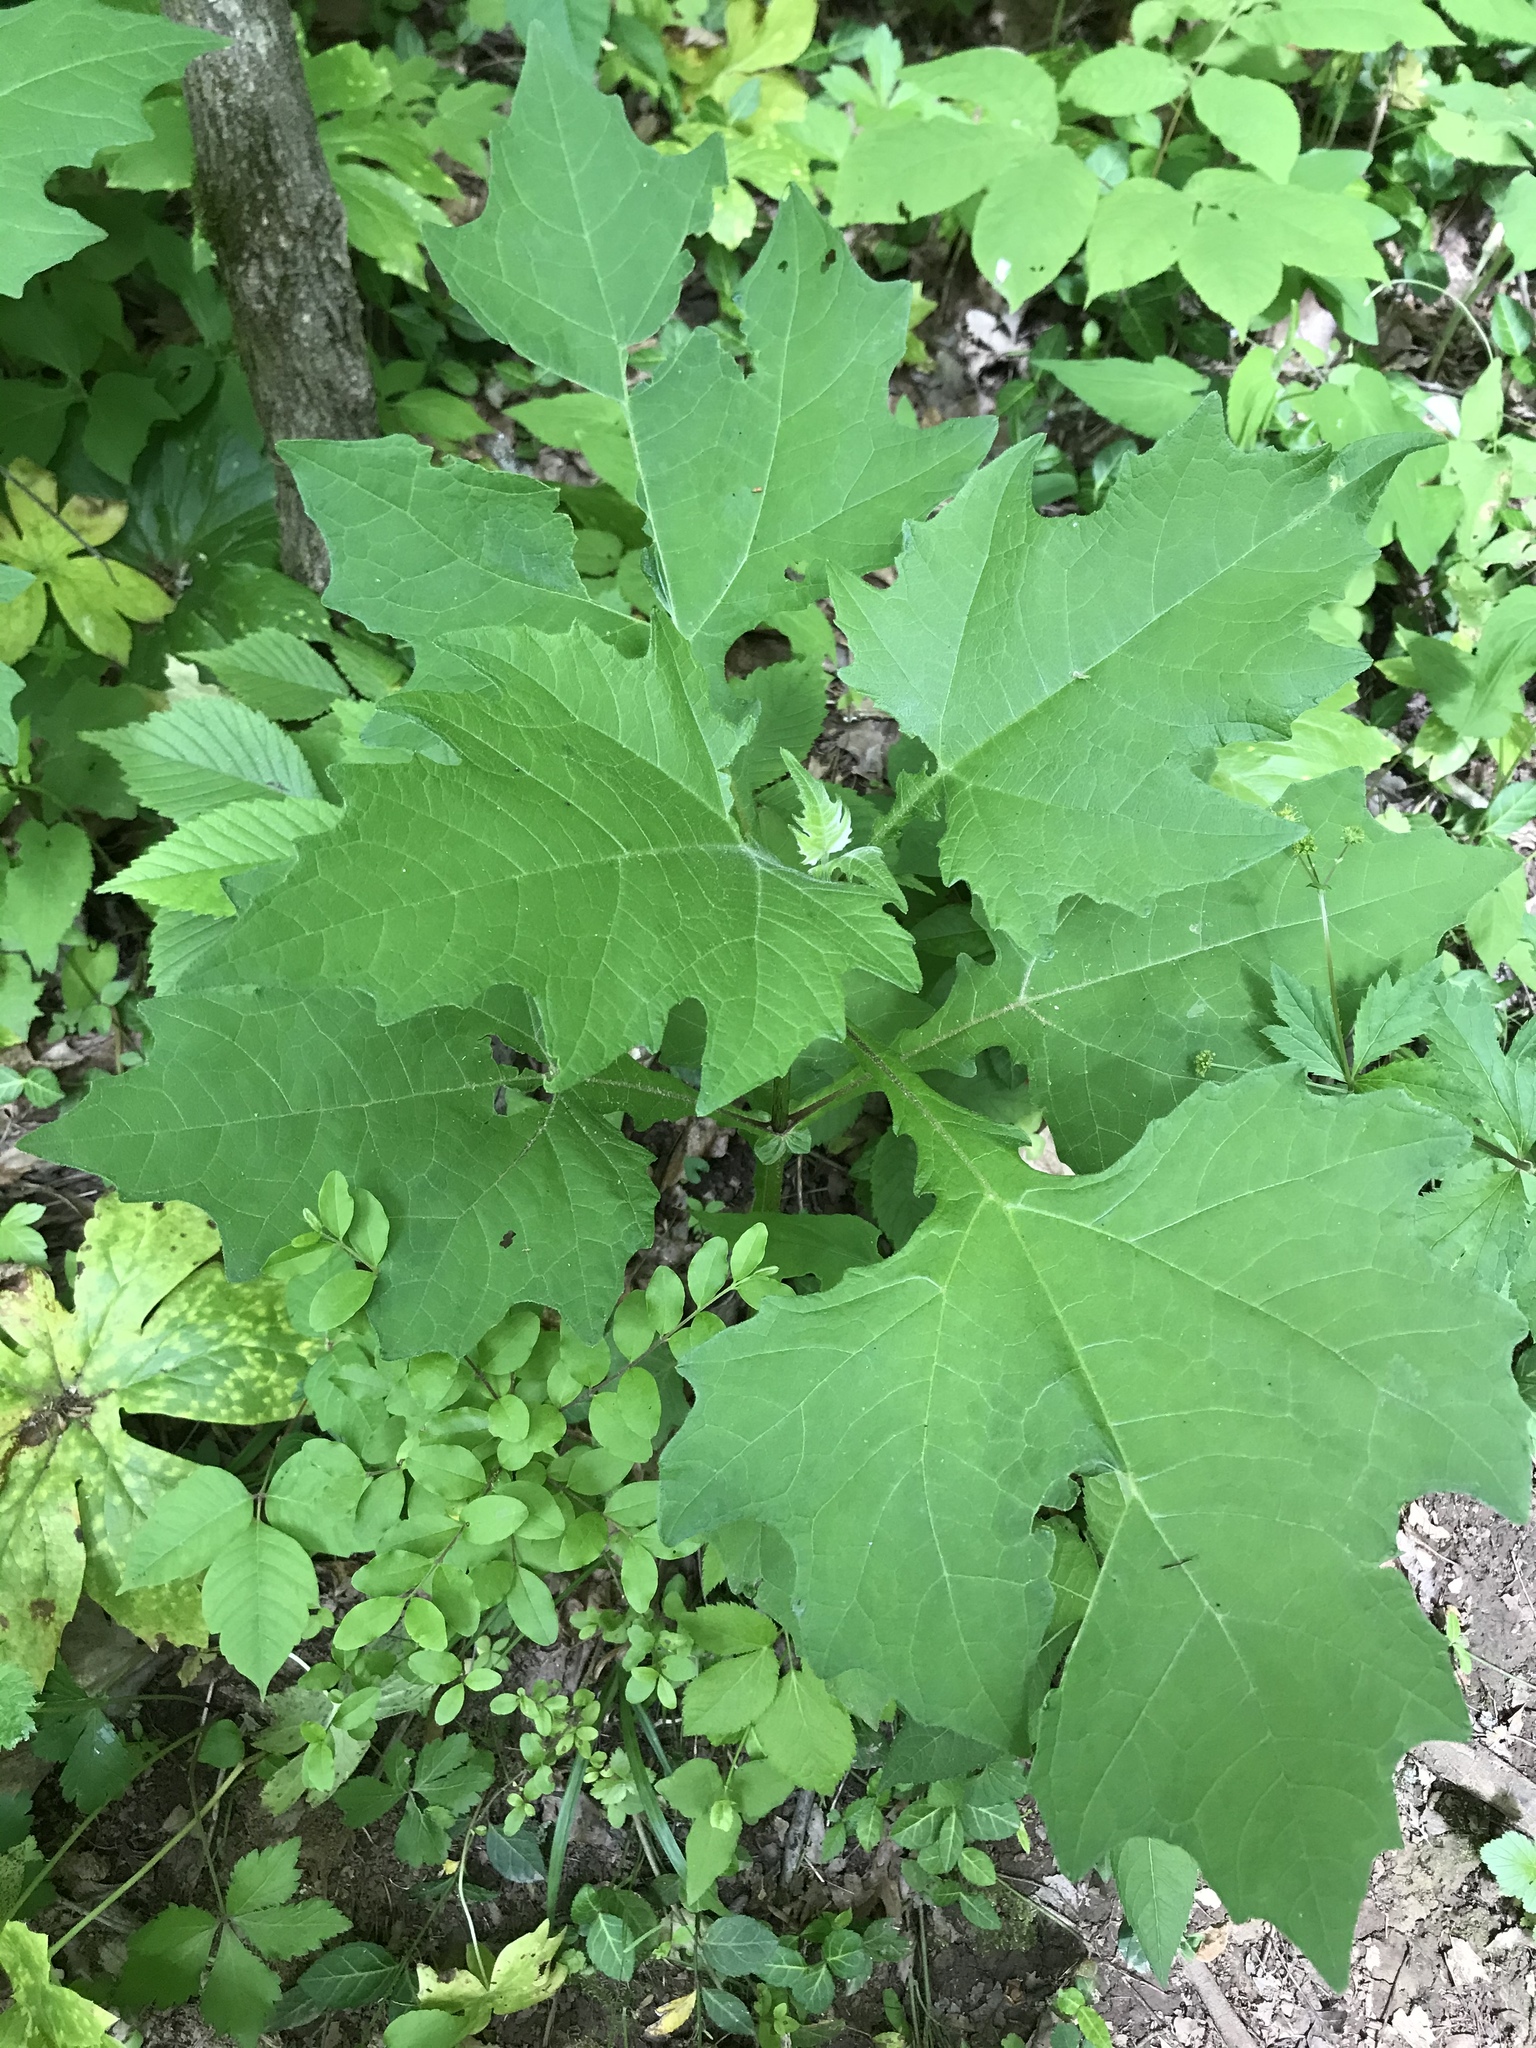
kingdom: Plantae
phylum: Tracheophyta
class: Magnoliopsida
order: Asterales
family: Asteraceae
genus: Smallanthus
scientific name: Smallanthus uvedalia
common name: Bear's-foot
